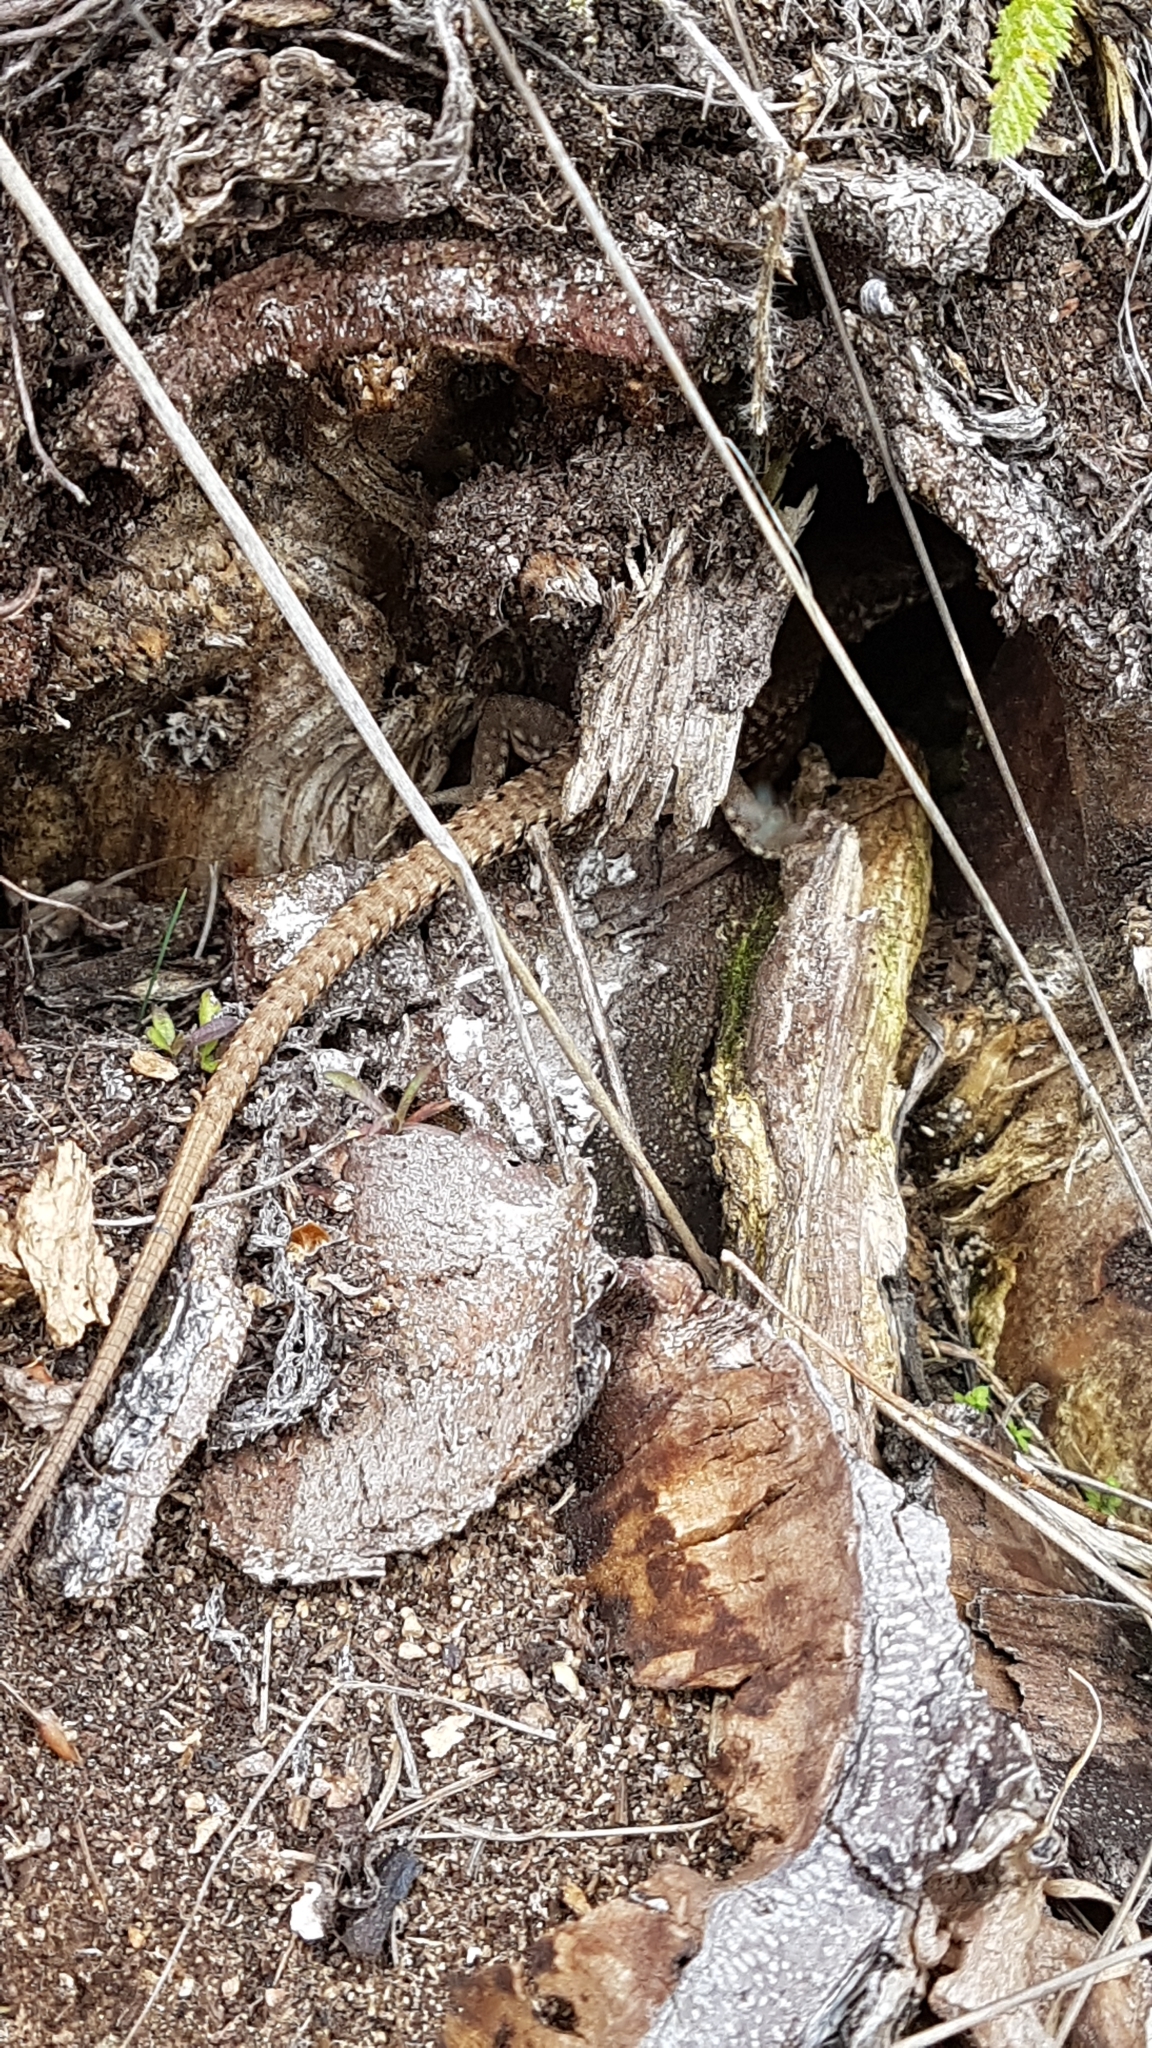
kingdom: Animalia
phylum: Chordata
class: Squamata
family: Lacertidae
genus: Podarcis
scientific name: Podarcis muralis
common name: Common wall lizard
